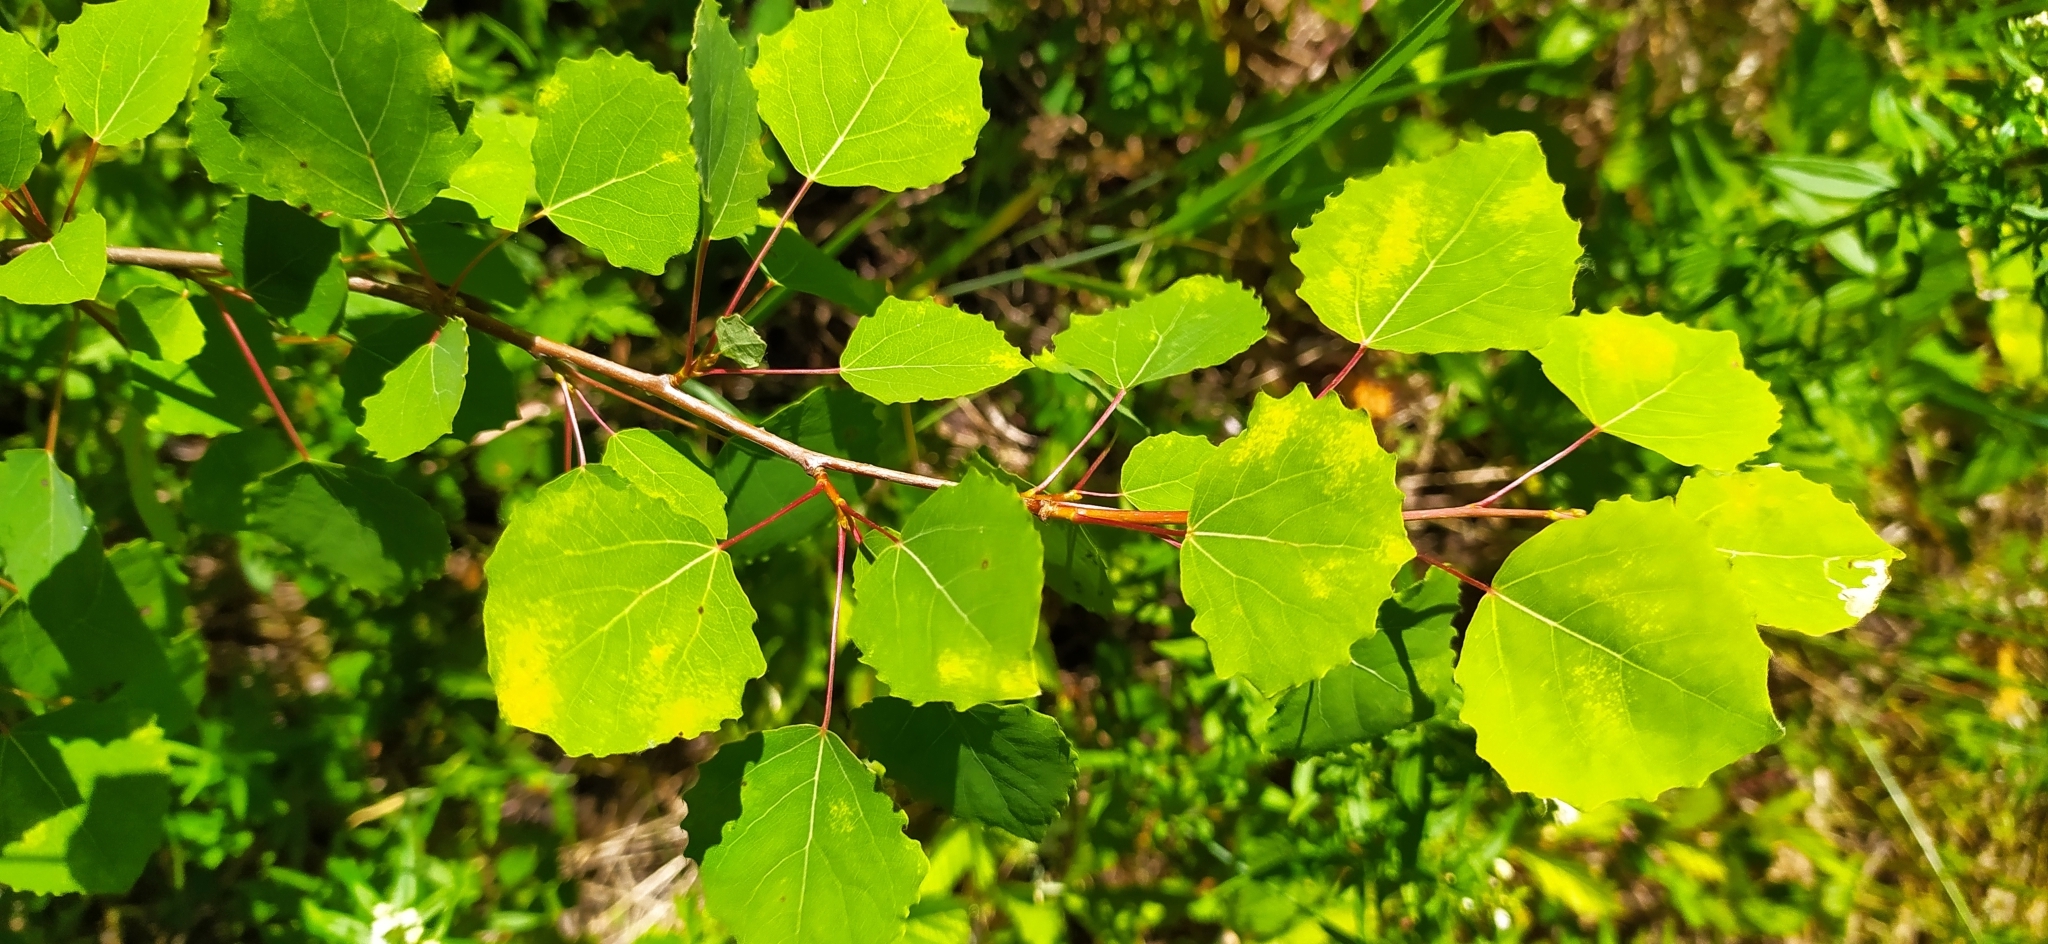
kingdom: Plantae
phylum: Tracheophyta
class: Magnoliopsida
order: Malpighiales
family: Salicaceae
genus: Populus
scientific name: Populus tremula
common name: European aspen
